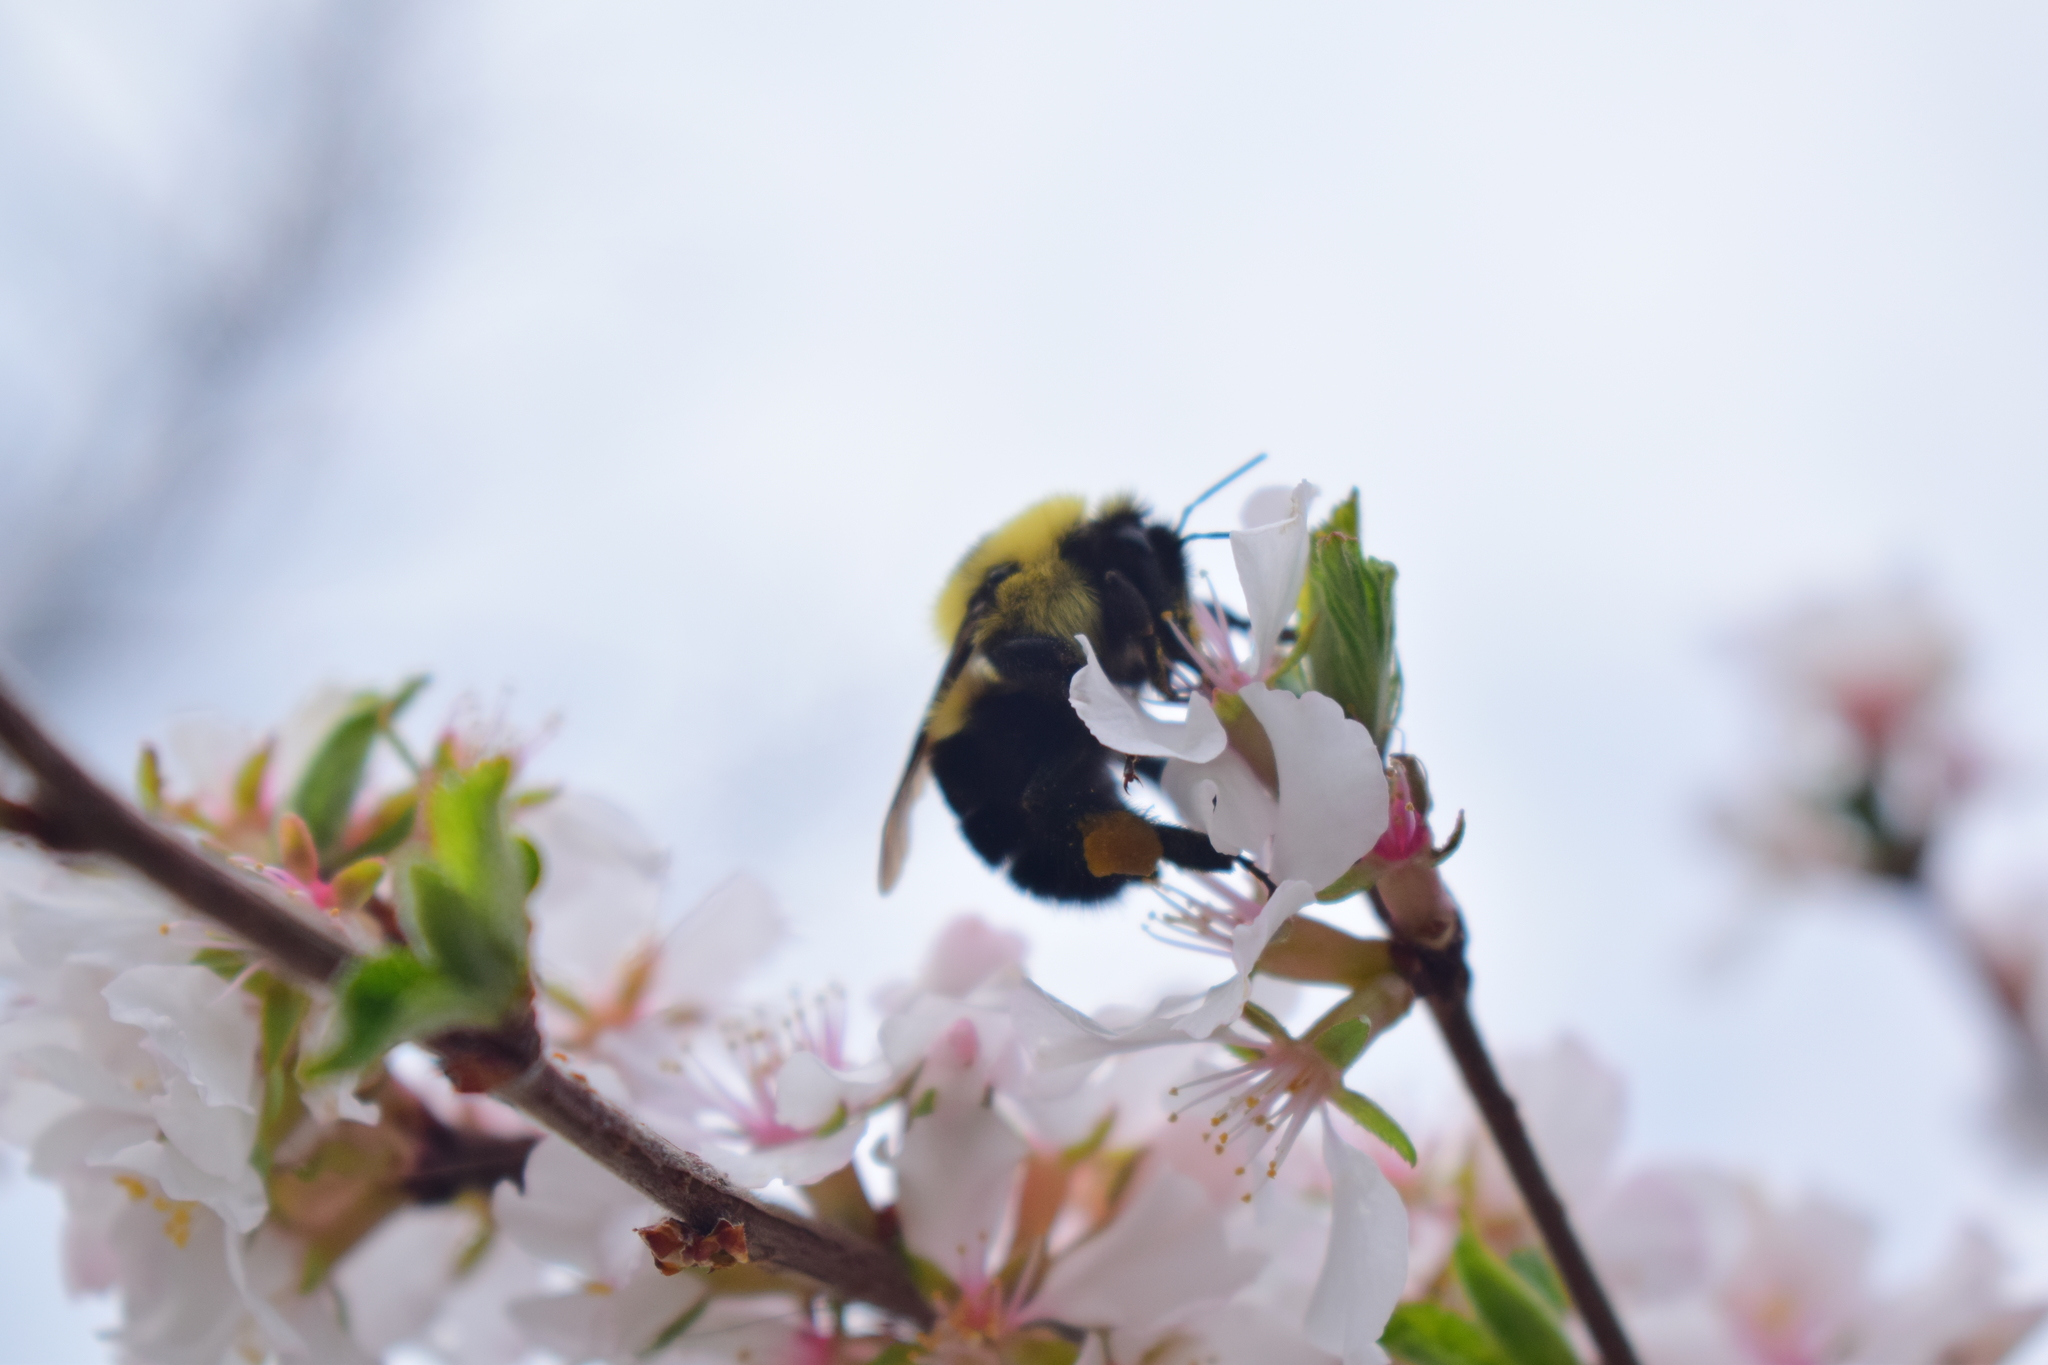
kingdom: Animalia
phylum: Arthropoda
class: Insecta
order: Hymenoptera
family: Apidae
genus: Bombus
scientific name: Bombus bimaculatus
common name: Two-spotted bumble bee
